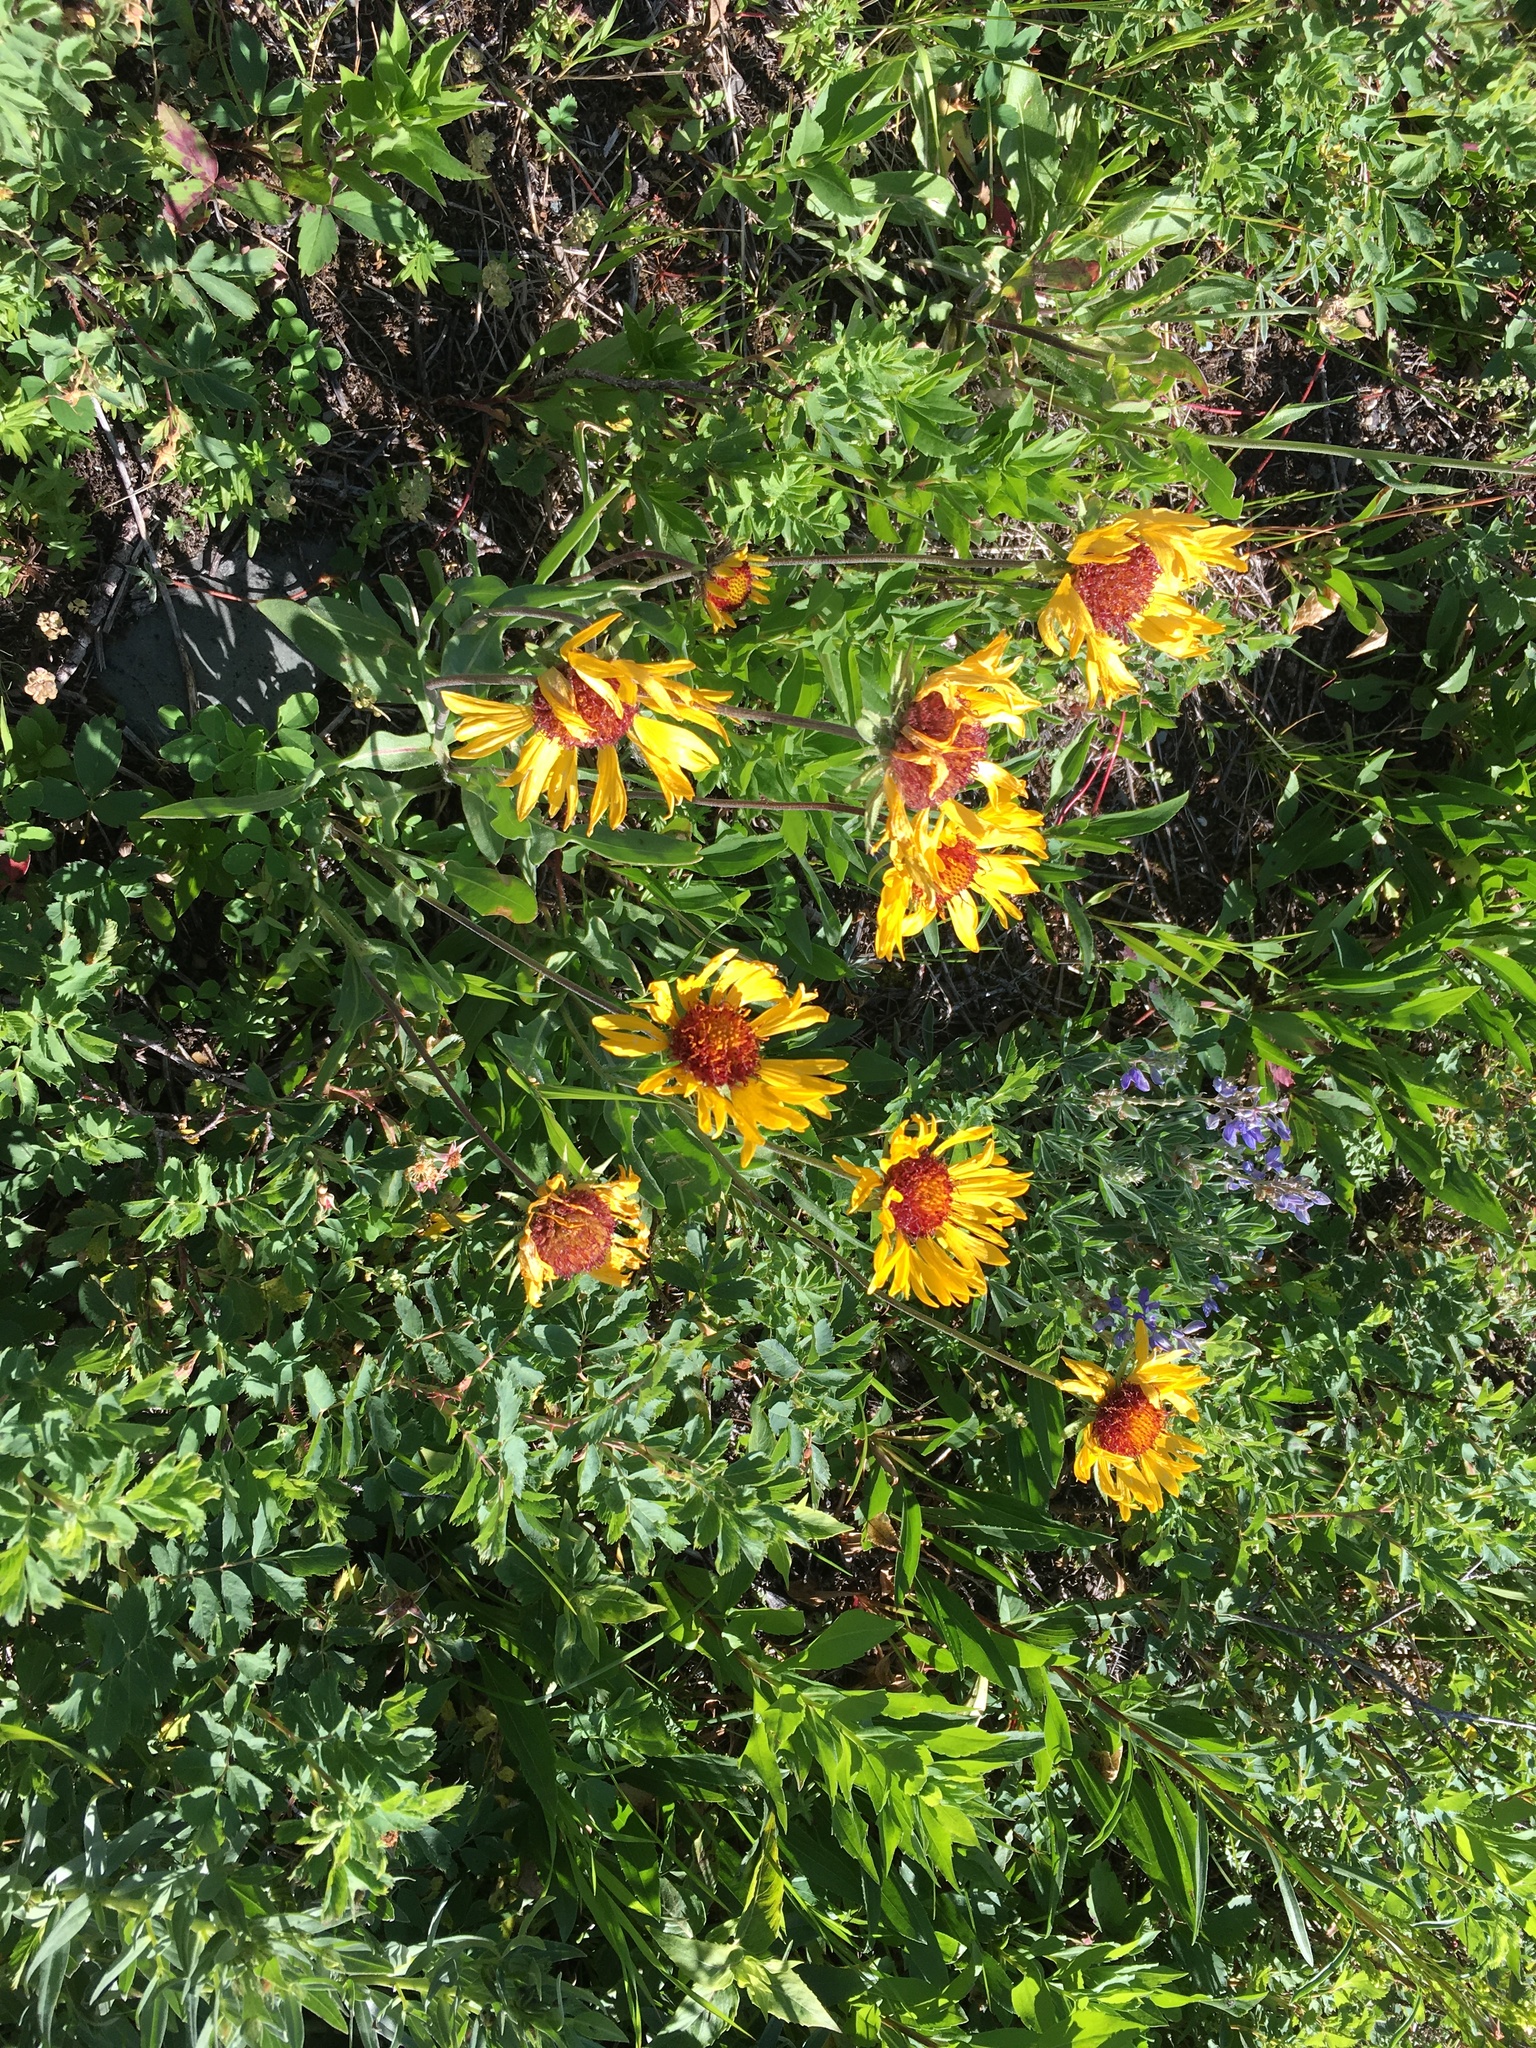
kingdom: Plantae
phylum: Tracheophyta
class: Magnoliopsida
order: Asterales
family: Asteraceae
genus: Gaillardia
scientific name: Gaillardia aristata
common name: Blanket-flower
